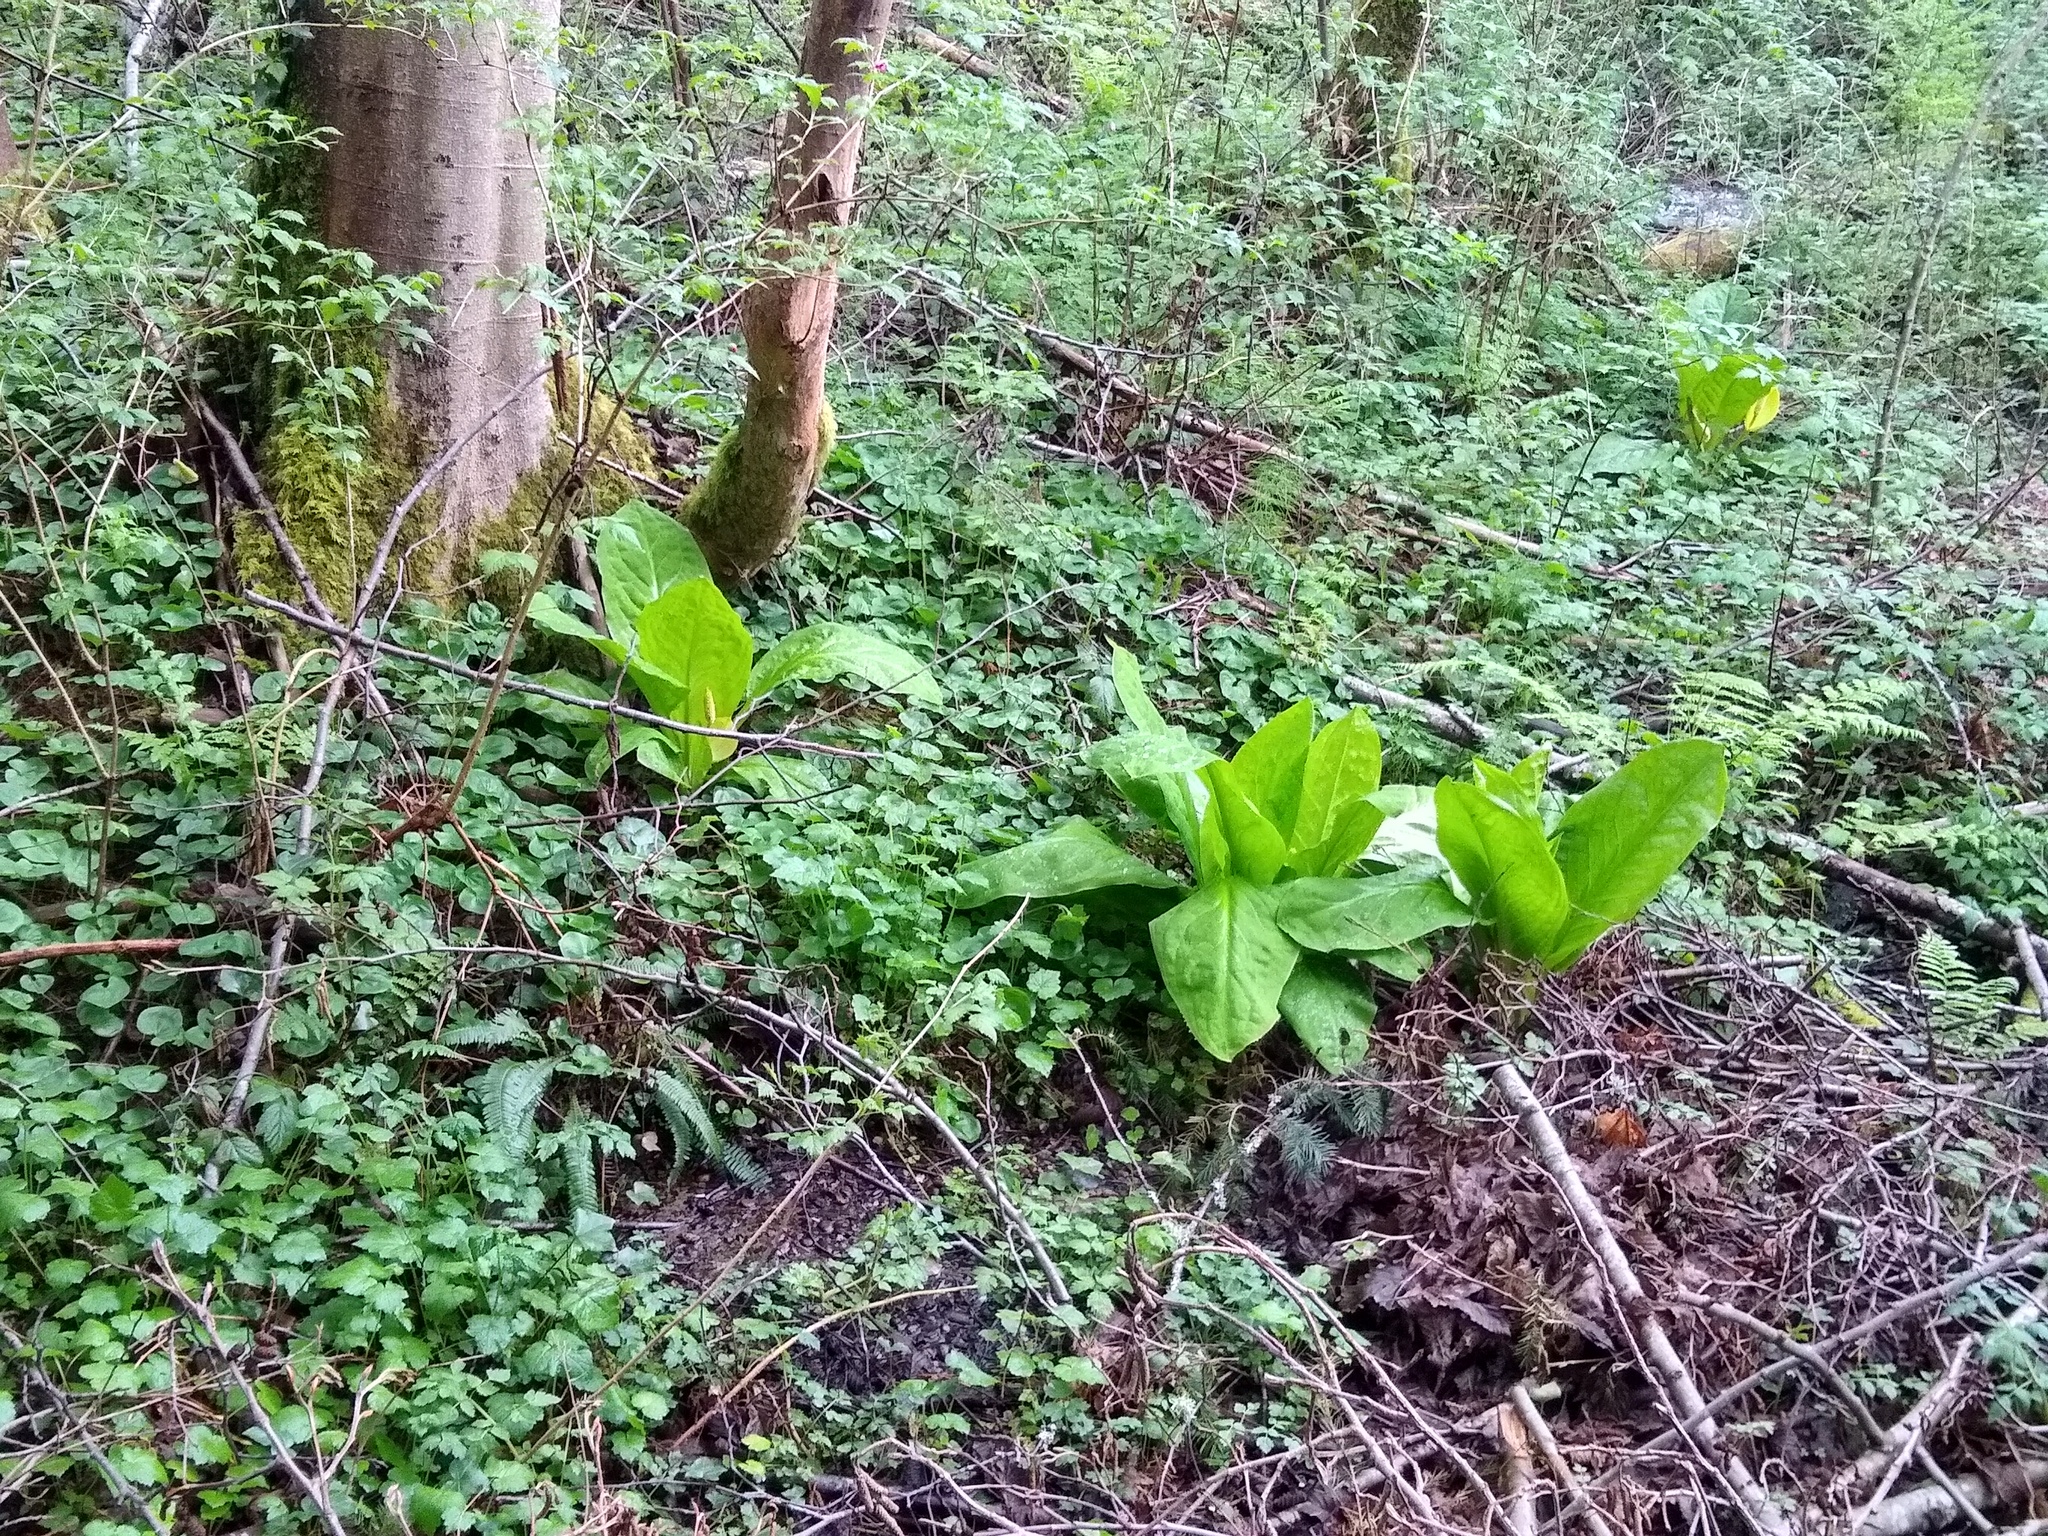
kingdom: Plantae
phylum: Tracheophyta
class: Liliopsida
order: Alismatales
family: Araceae
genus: Lysichiton
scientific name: Lysichiton americanus
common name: American skunk cabbage
